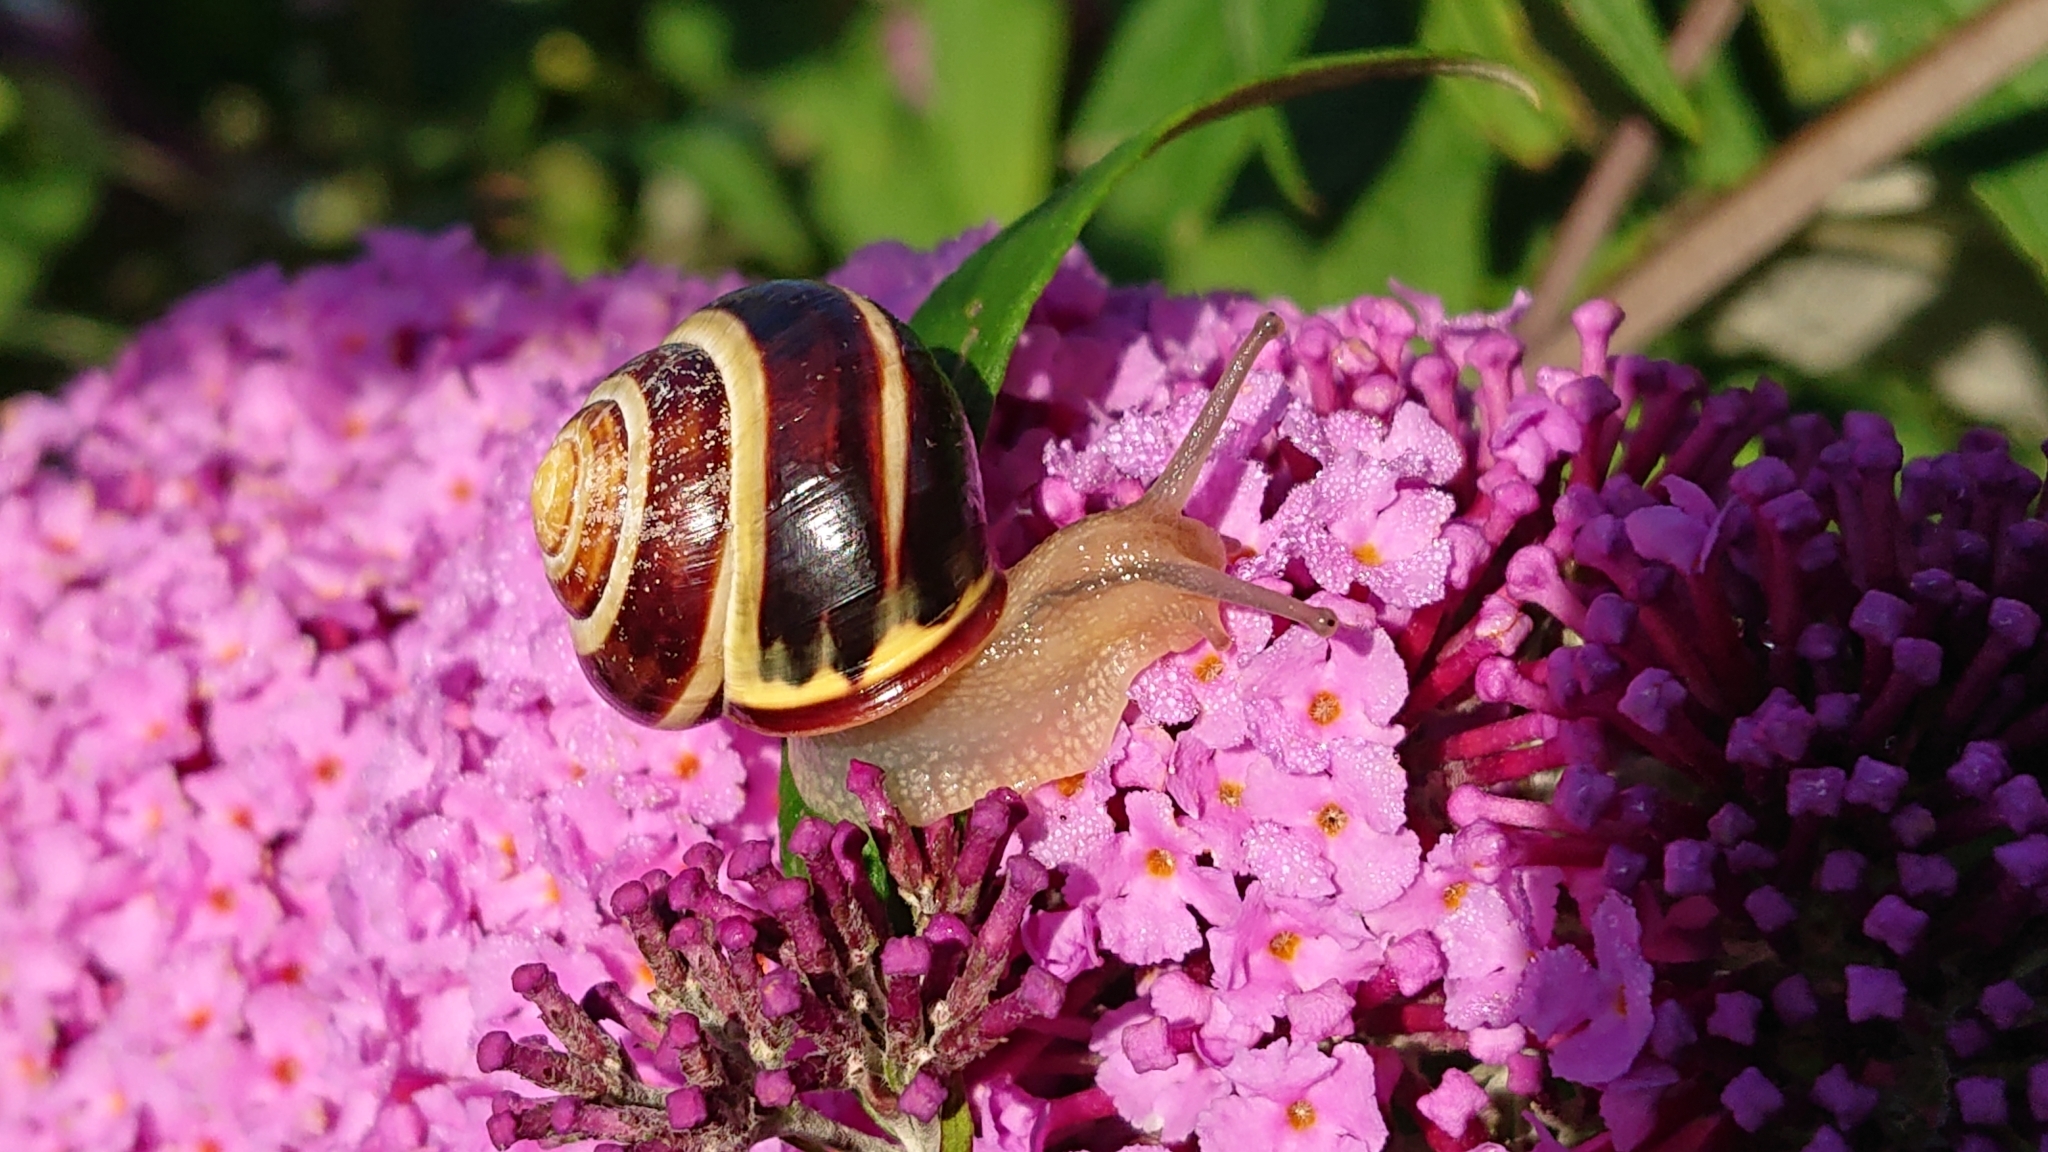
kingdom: Animalia
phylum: Mollusca
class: Gastropoda
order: Stylommatophora
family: Helicidae
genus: Cepaea
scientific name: Cepaea nemoralis
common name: Grovesnail
